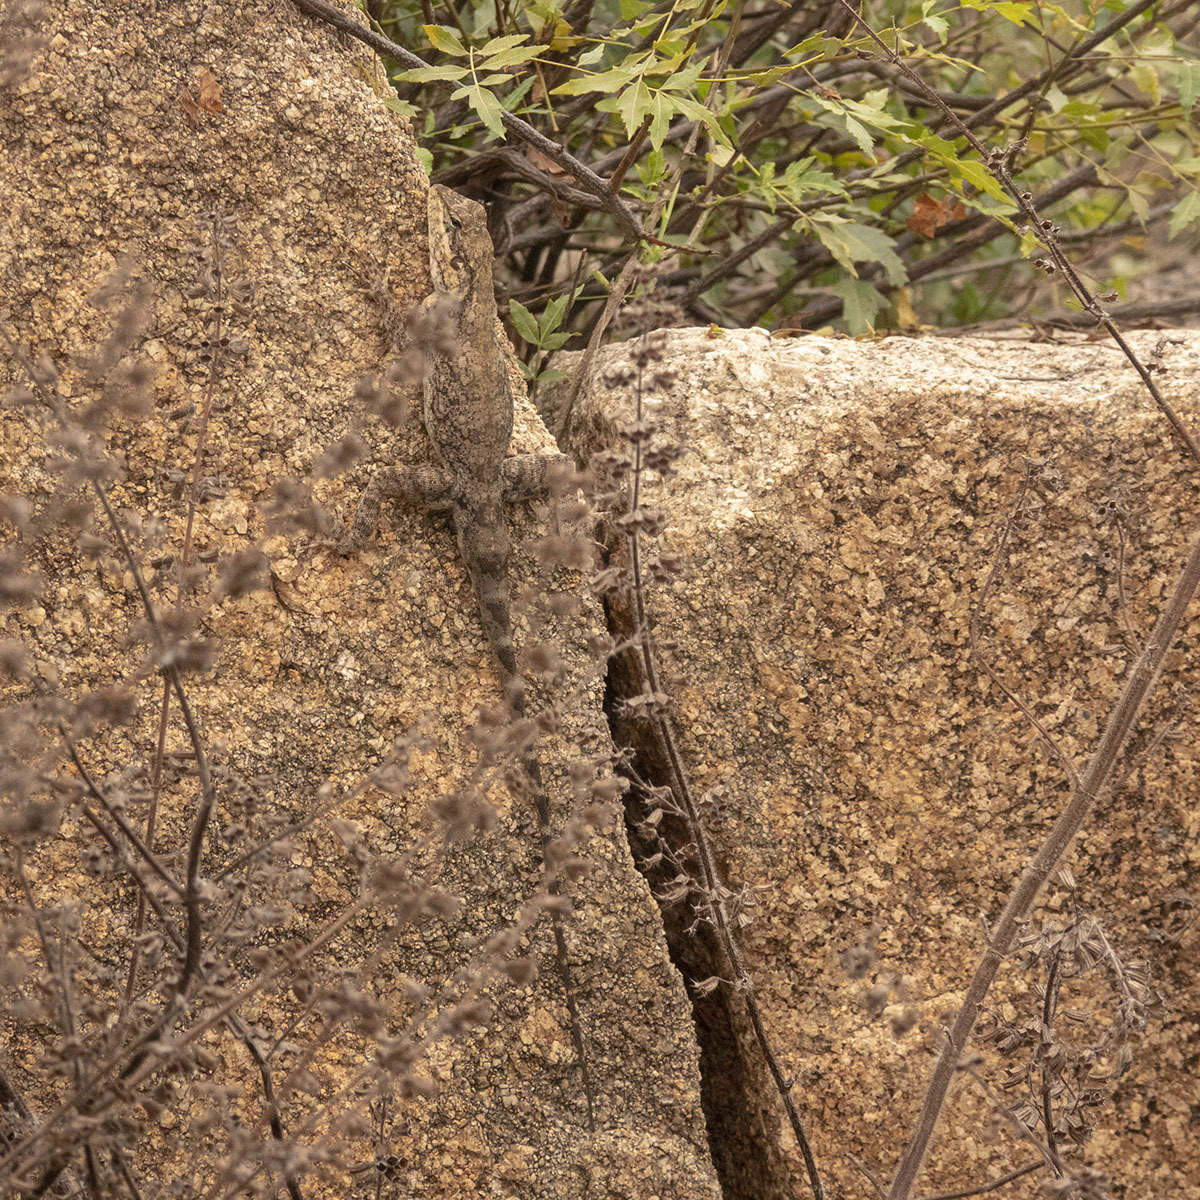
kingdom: Animalia
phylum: Chordata
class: Squamata
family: Agamidae
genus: Psammophilus
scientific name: Psammophilus dorsalis
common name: South indian rock agama
